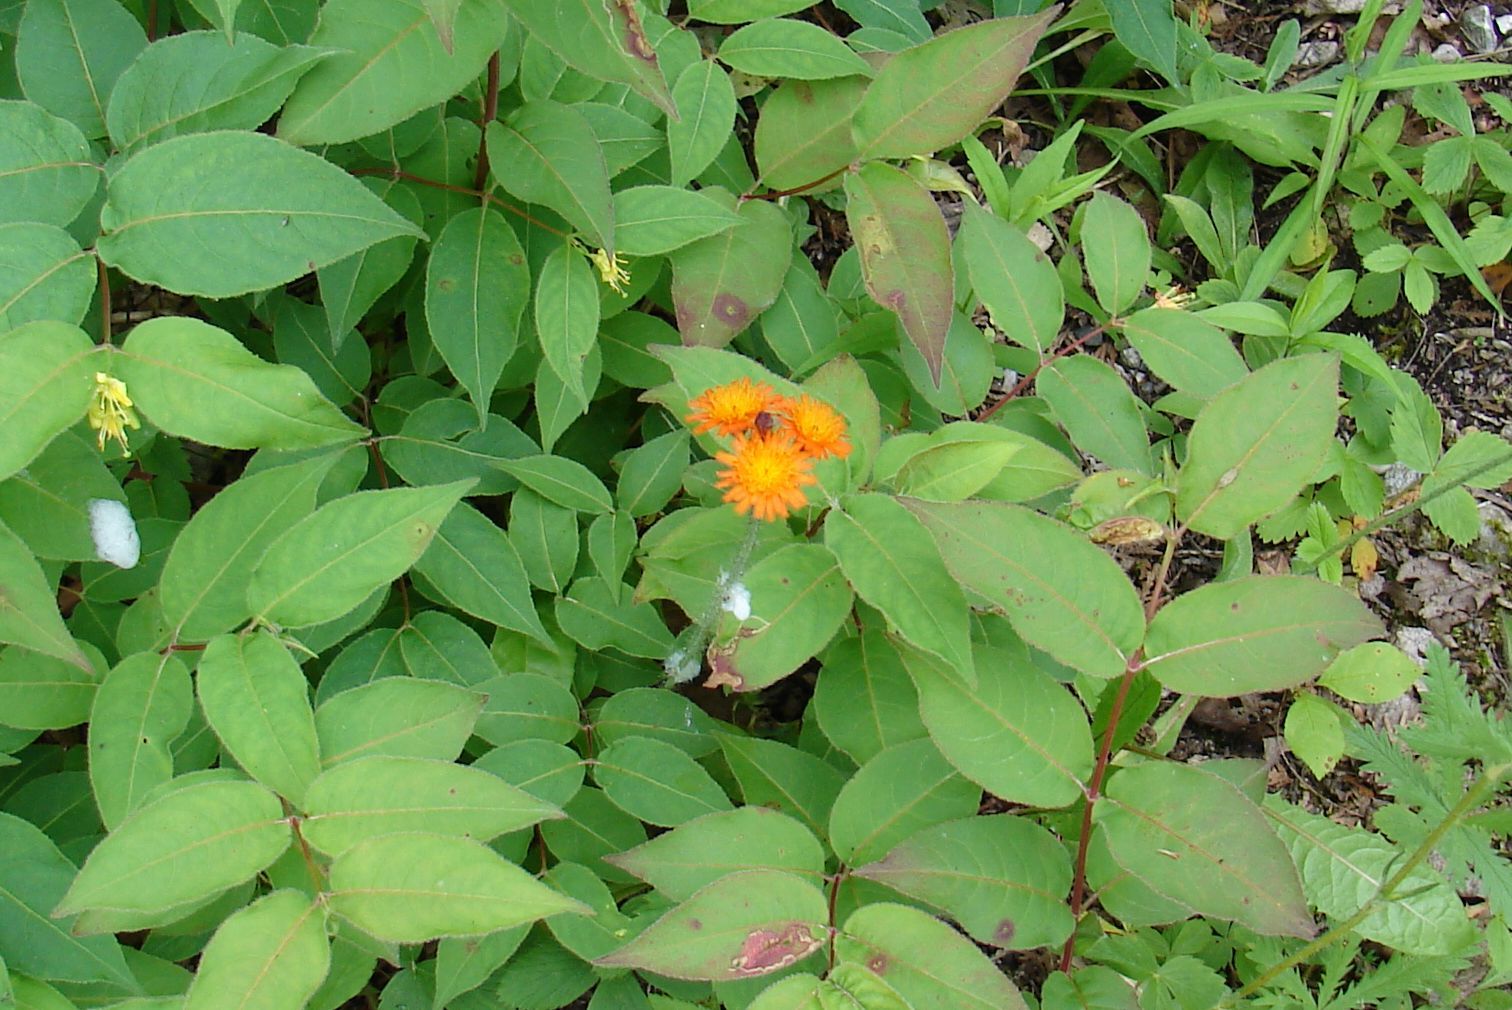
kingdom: Plantae
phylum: Tracheophyta
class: Magnoliopsida
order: Asterales
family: Asteraceae
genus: Pilosella
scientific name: Pilosella aurantiaca
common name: Fox-and-cubs
